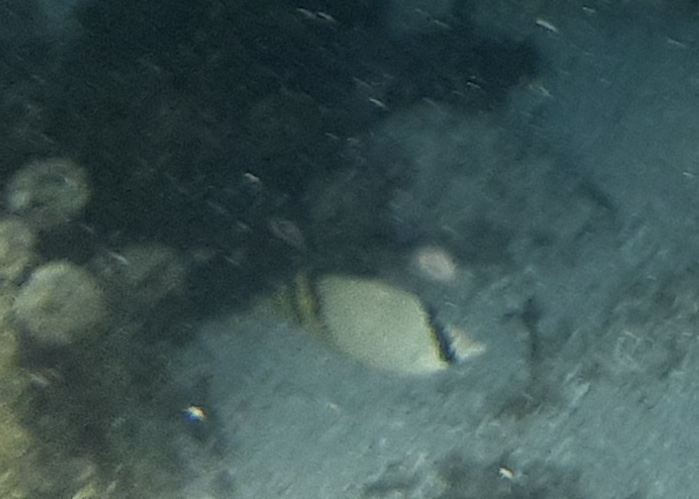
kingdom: Animalia
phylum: Chordata
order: Perciformes
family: Chaetodontidae
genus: Chaetodon
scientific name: Chaetodon vagabundus
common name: Vagabond butterflyfish
